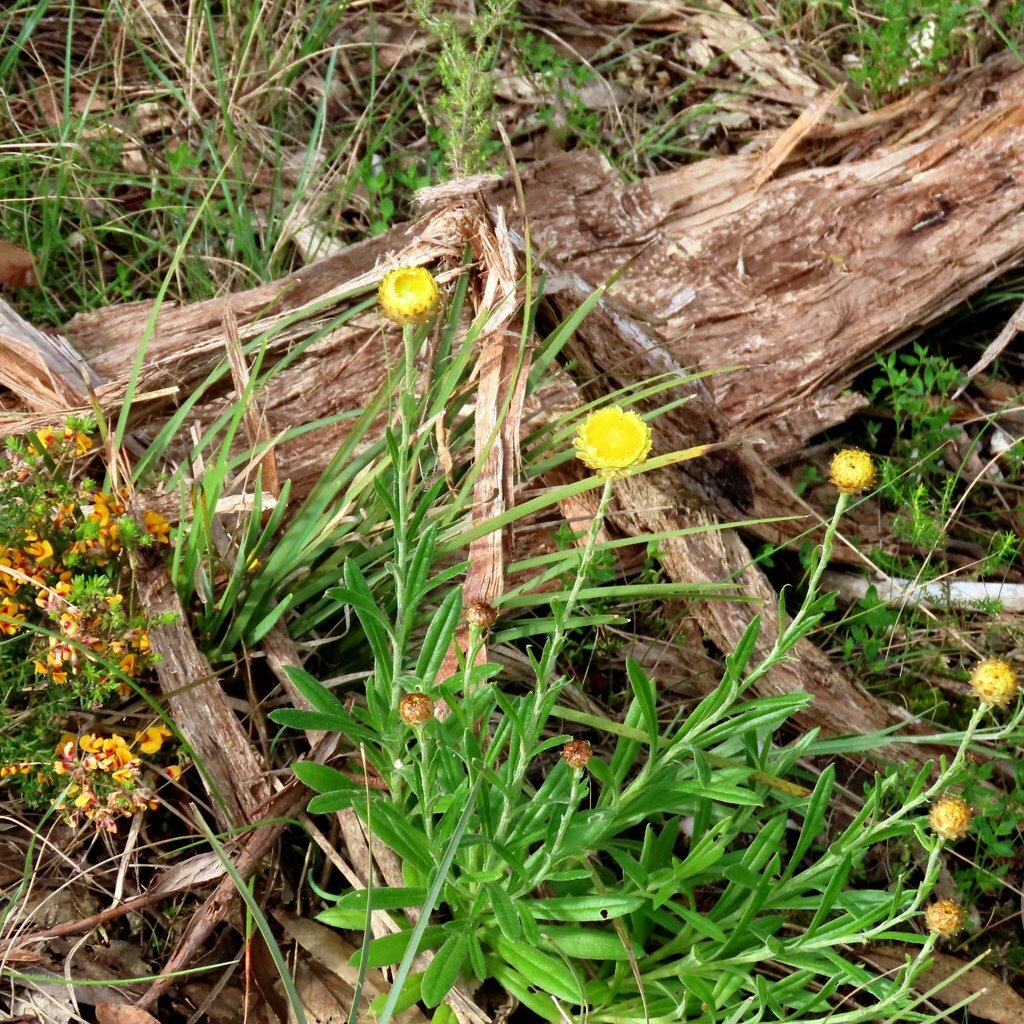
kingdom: Plantae
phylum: Tracheophyta
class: Magnoliopsida
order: Asterales
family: Asteraceae
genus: Coronidium
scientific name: Coronidium scorpioides
